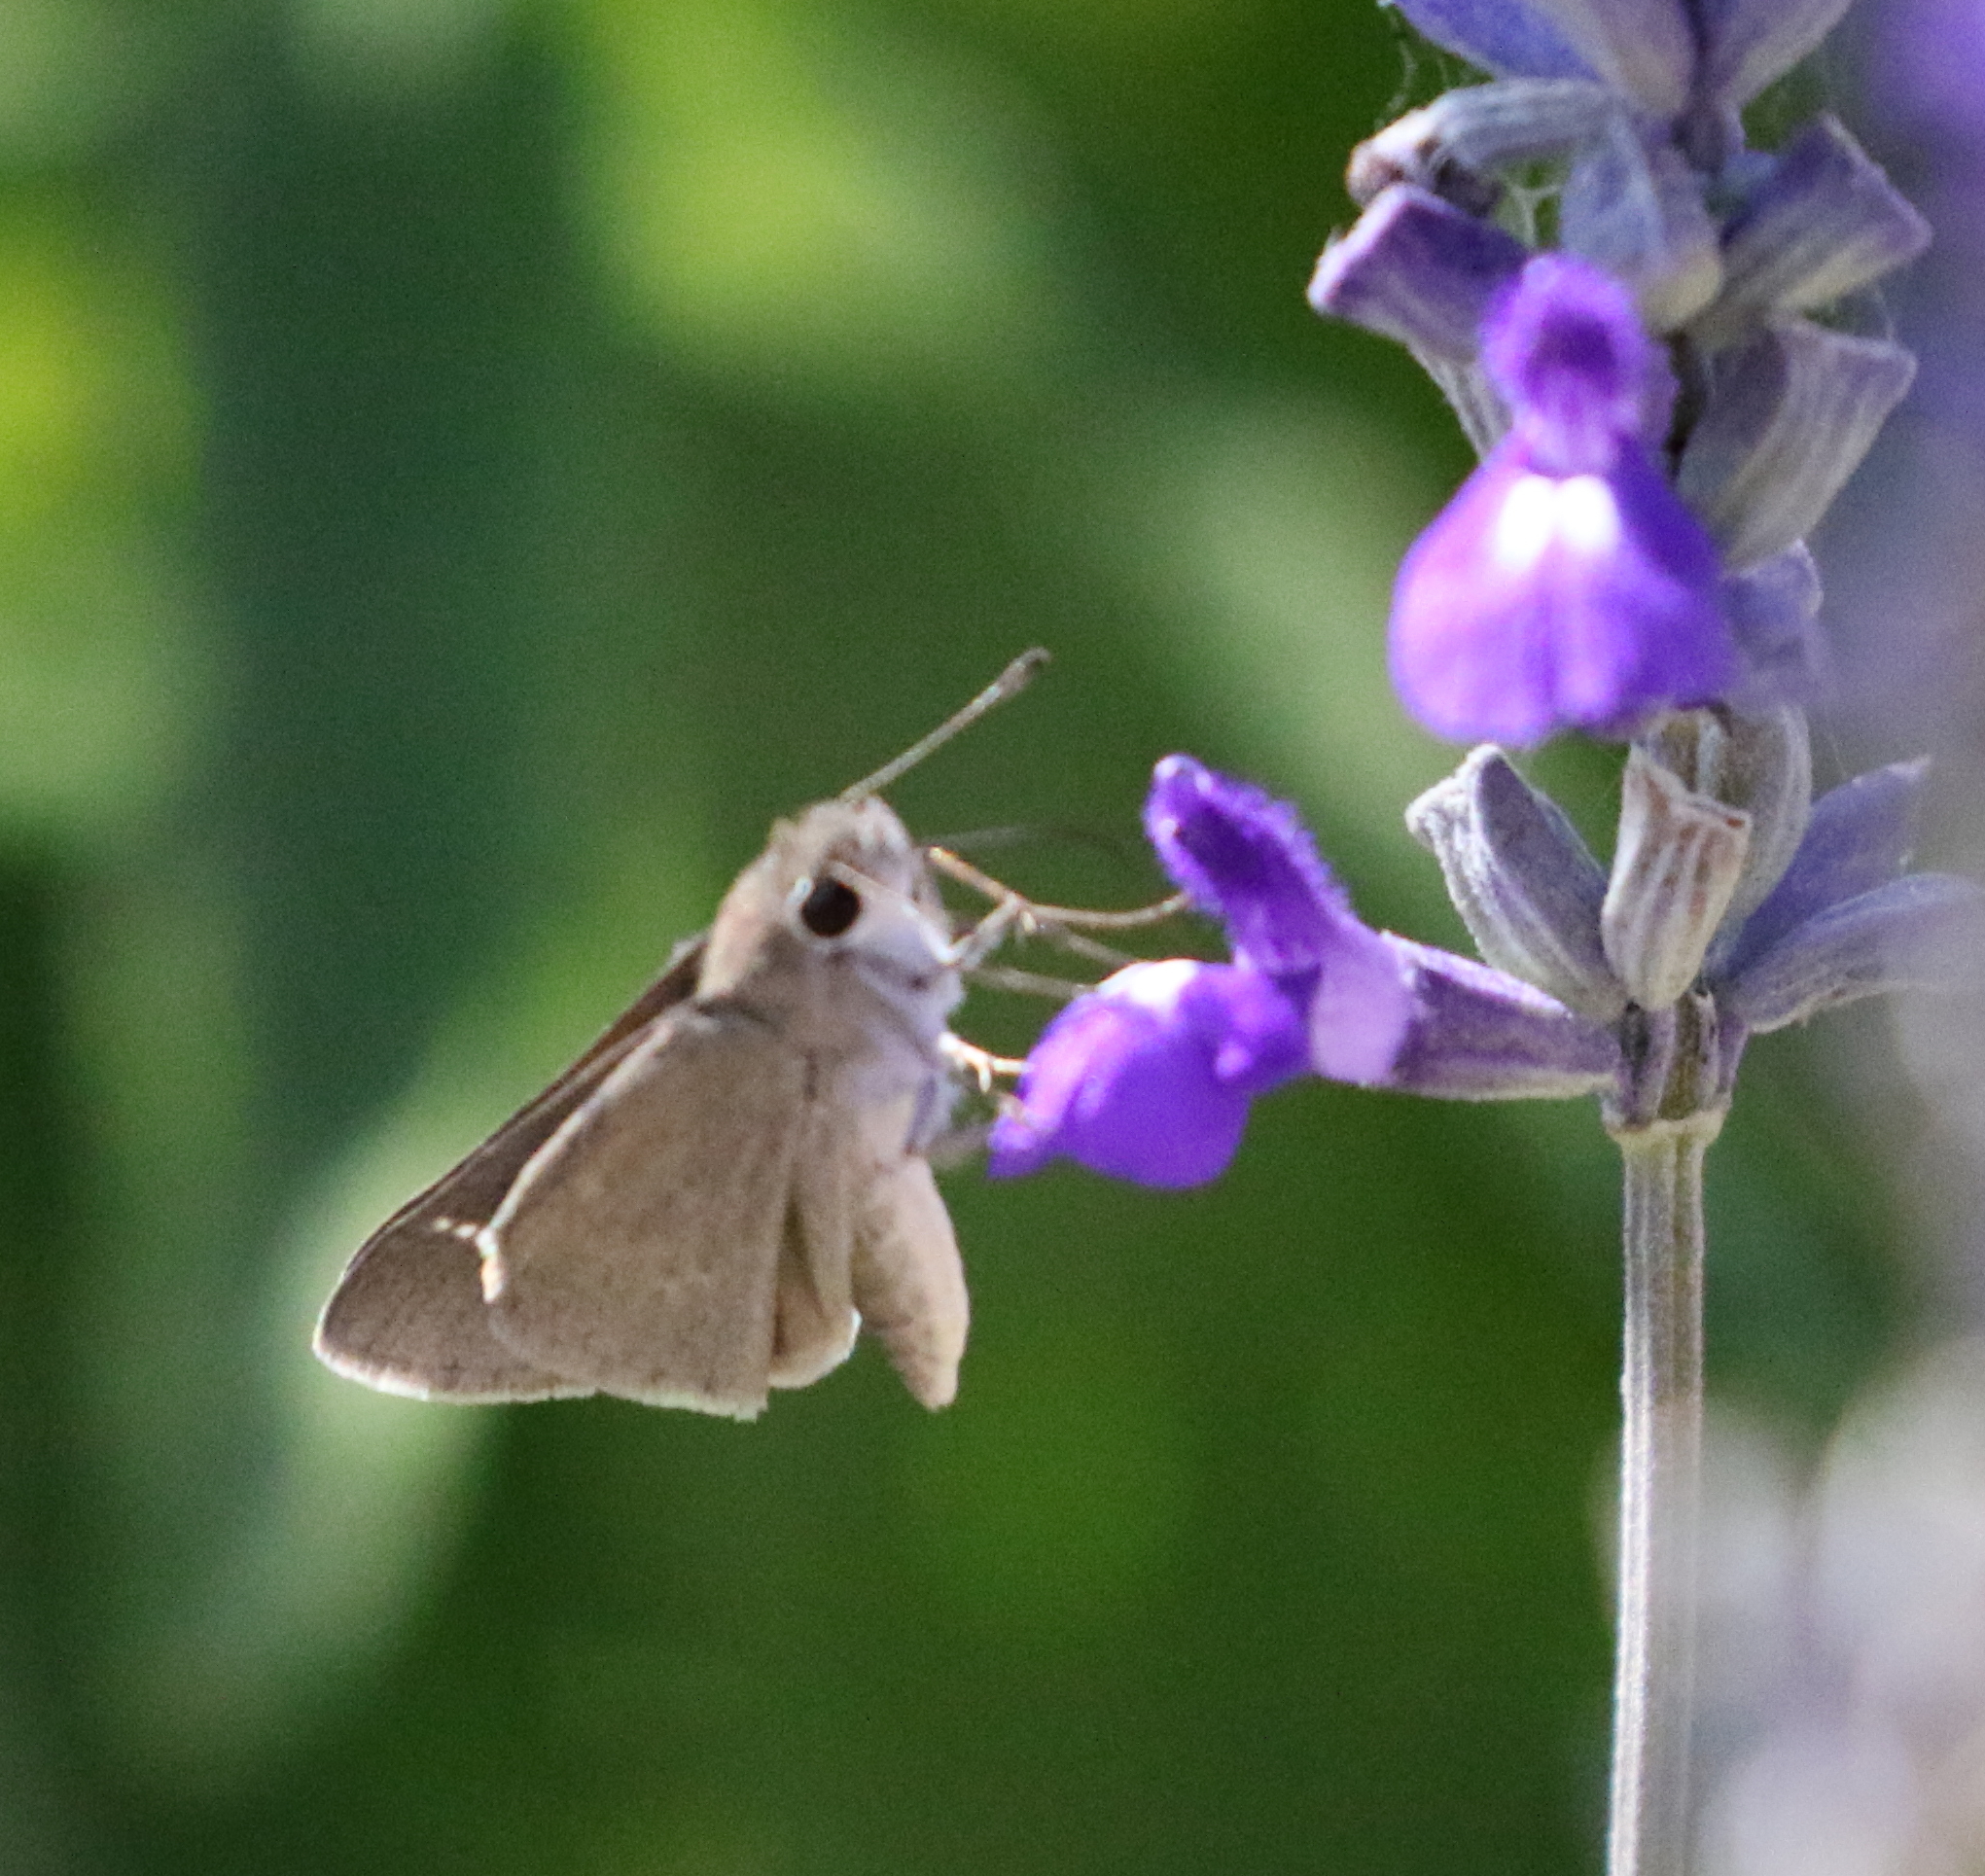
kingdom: Animalia
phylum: Arthropoda
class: Insecta
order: Lepidoptera
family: Hesperiidae
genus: Lerodea
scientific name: Lerodea eufala
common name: Eufala skipper
